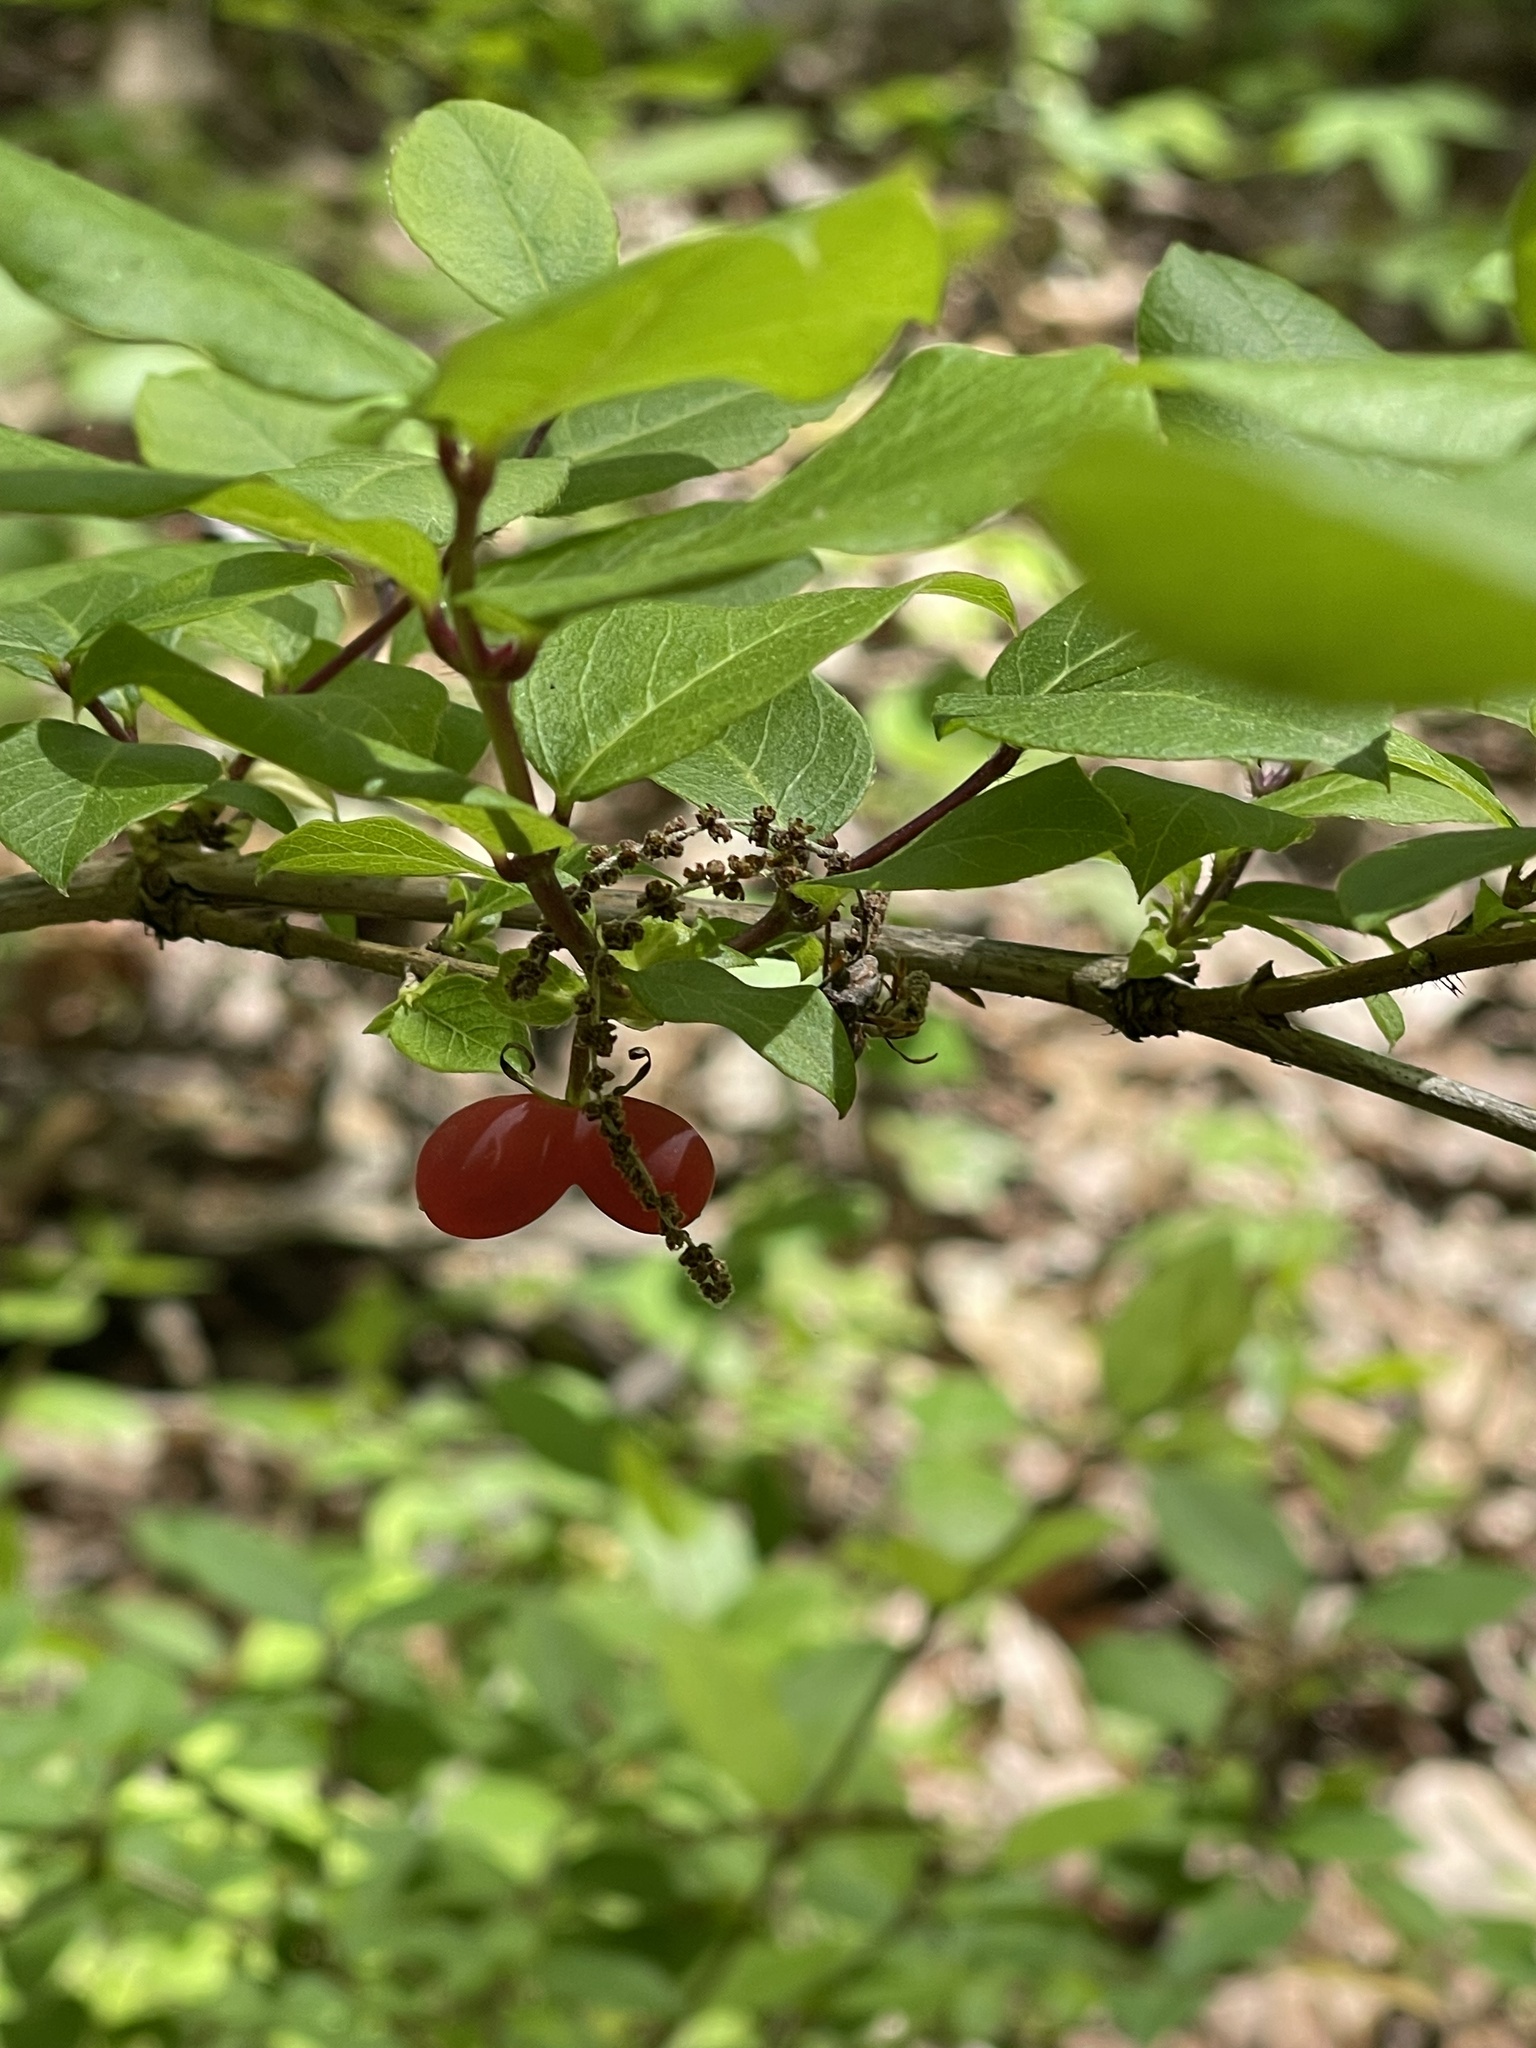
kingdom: Plantae
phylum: Tracheophyta
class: Magnoliopsida
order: Dipsacales
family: Caprifoliaceae
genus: Lonicera
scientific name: Lonicera fragrantissima
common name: Fragrant honeysuckle
